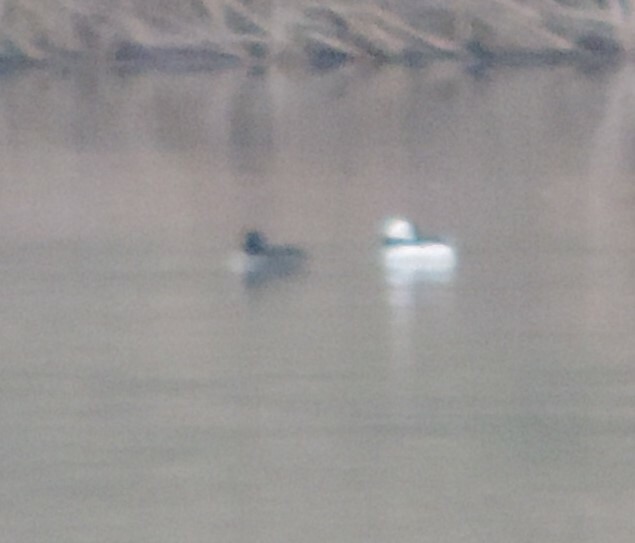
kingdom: Animalia
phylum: Chordata
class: Aves
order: Anseriformes
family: Anatidae
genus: Bucephala
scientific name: Bucephala albeola
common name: Bufflehead
